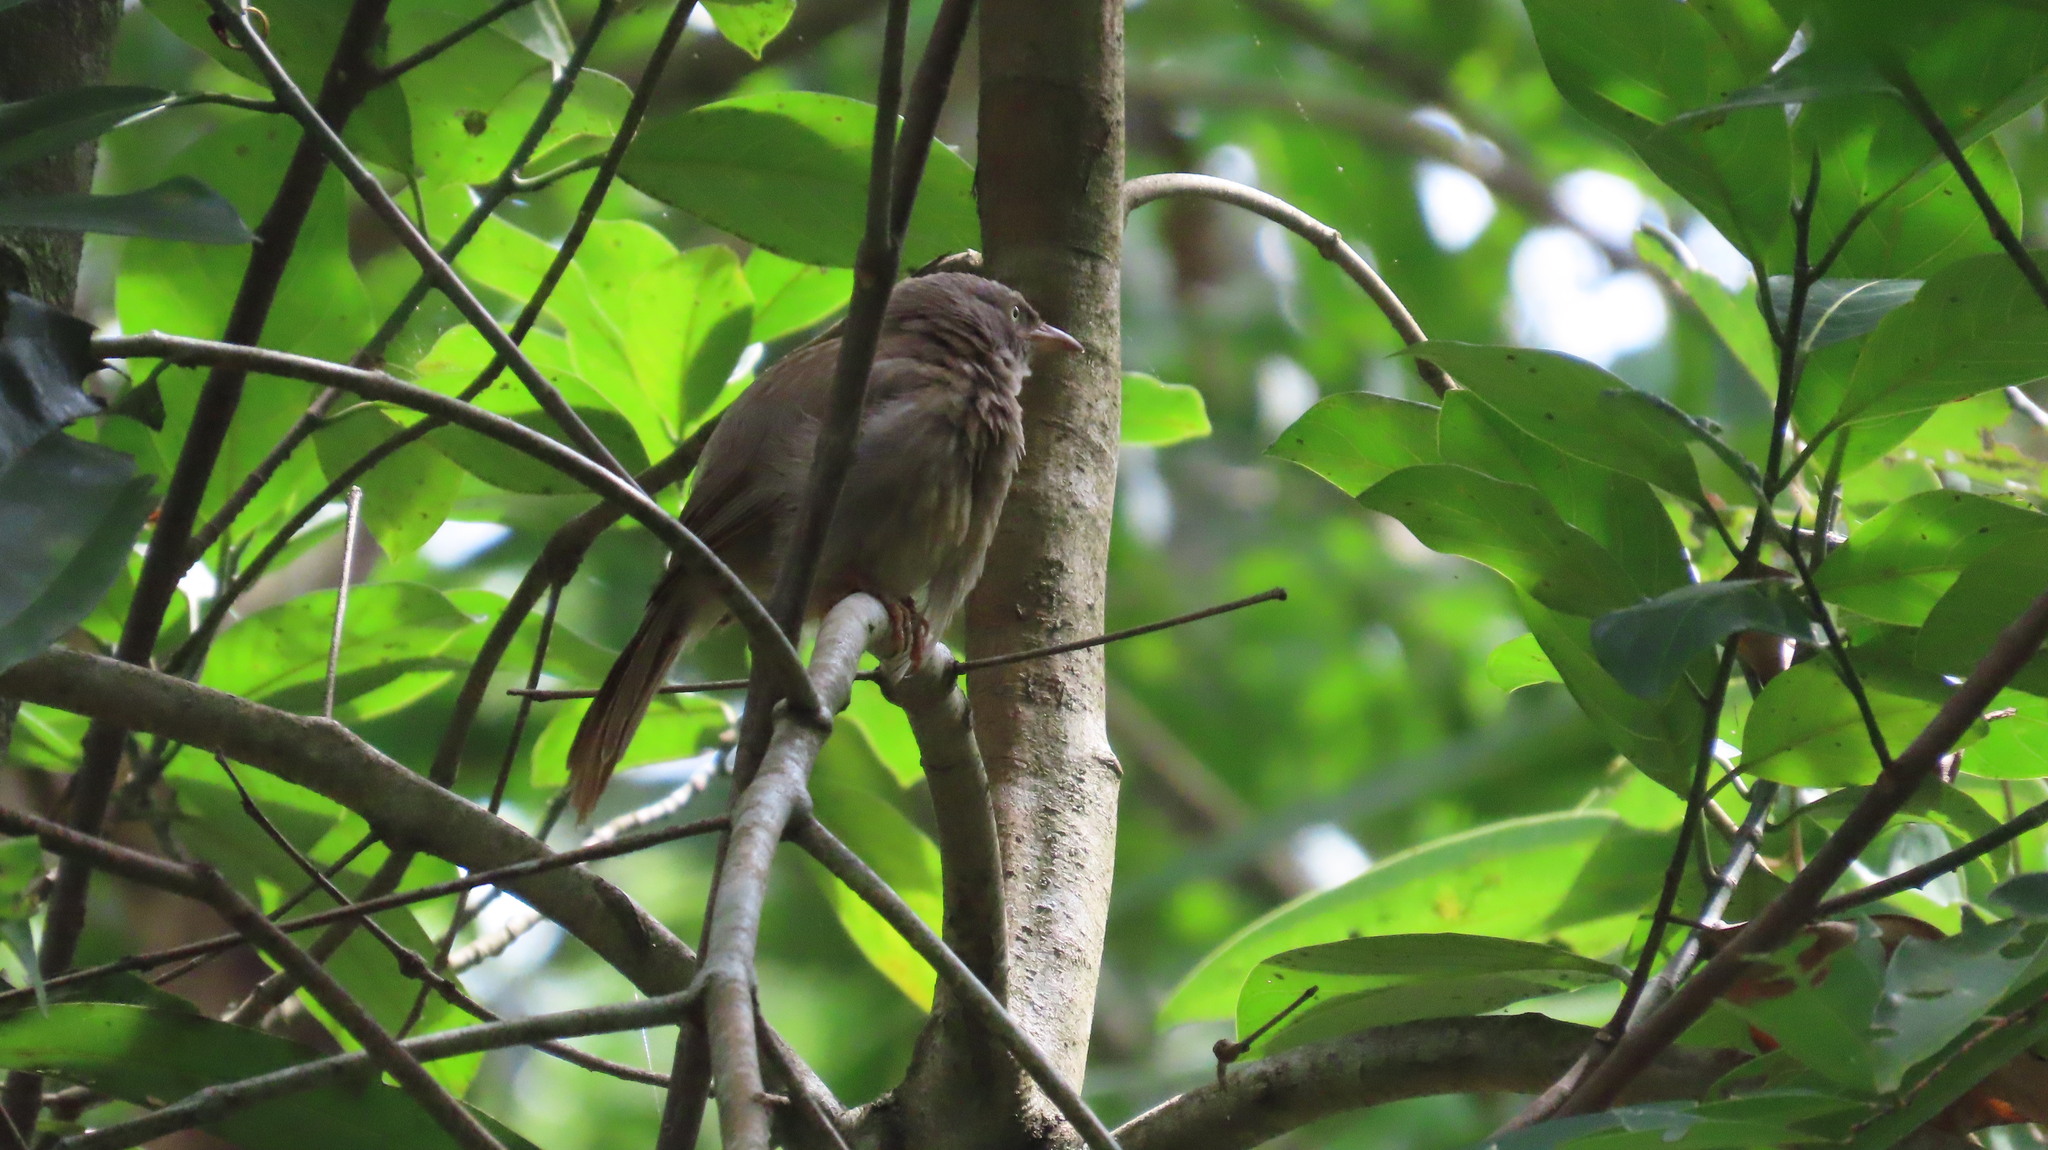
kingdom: Animalia
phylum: Chordata
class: Aves
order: Passeriformes
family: Leiothrichidae
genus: Turdoides
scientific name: Turdoides striata
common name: Jungle babbler
